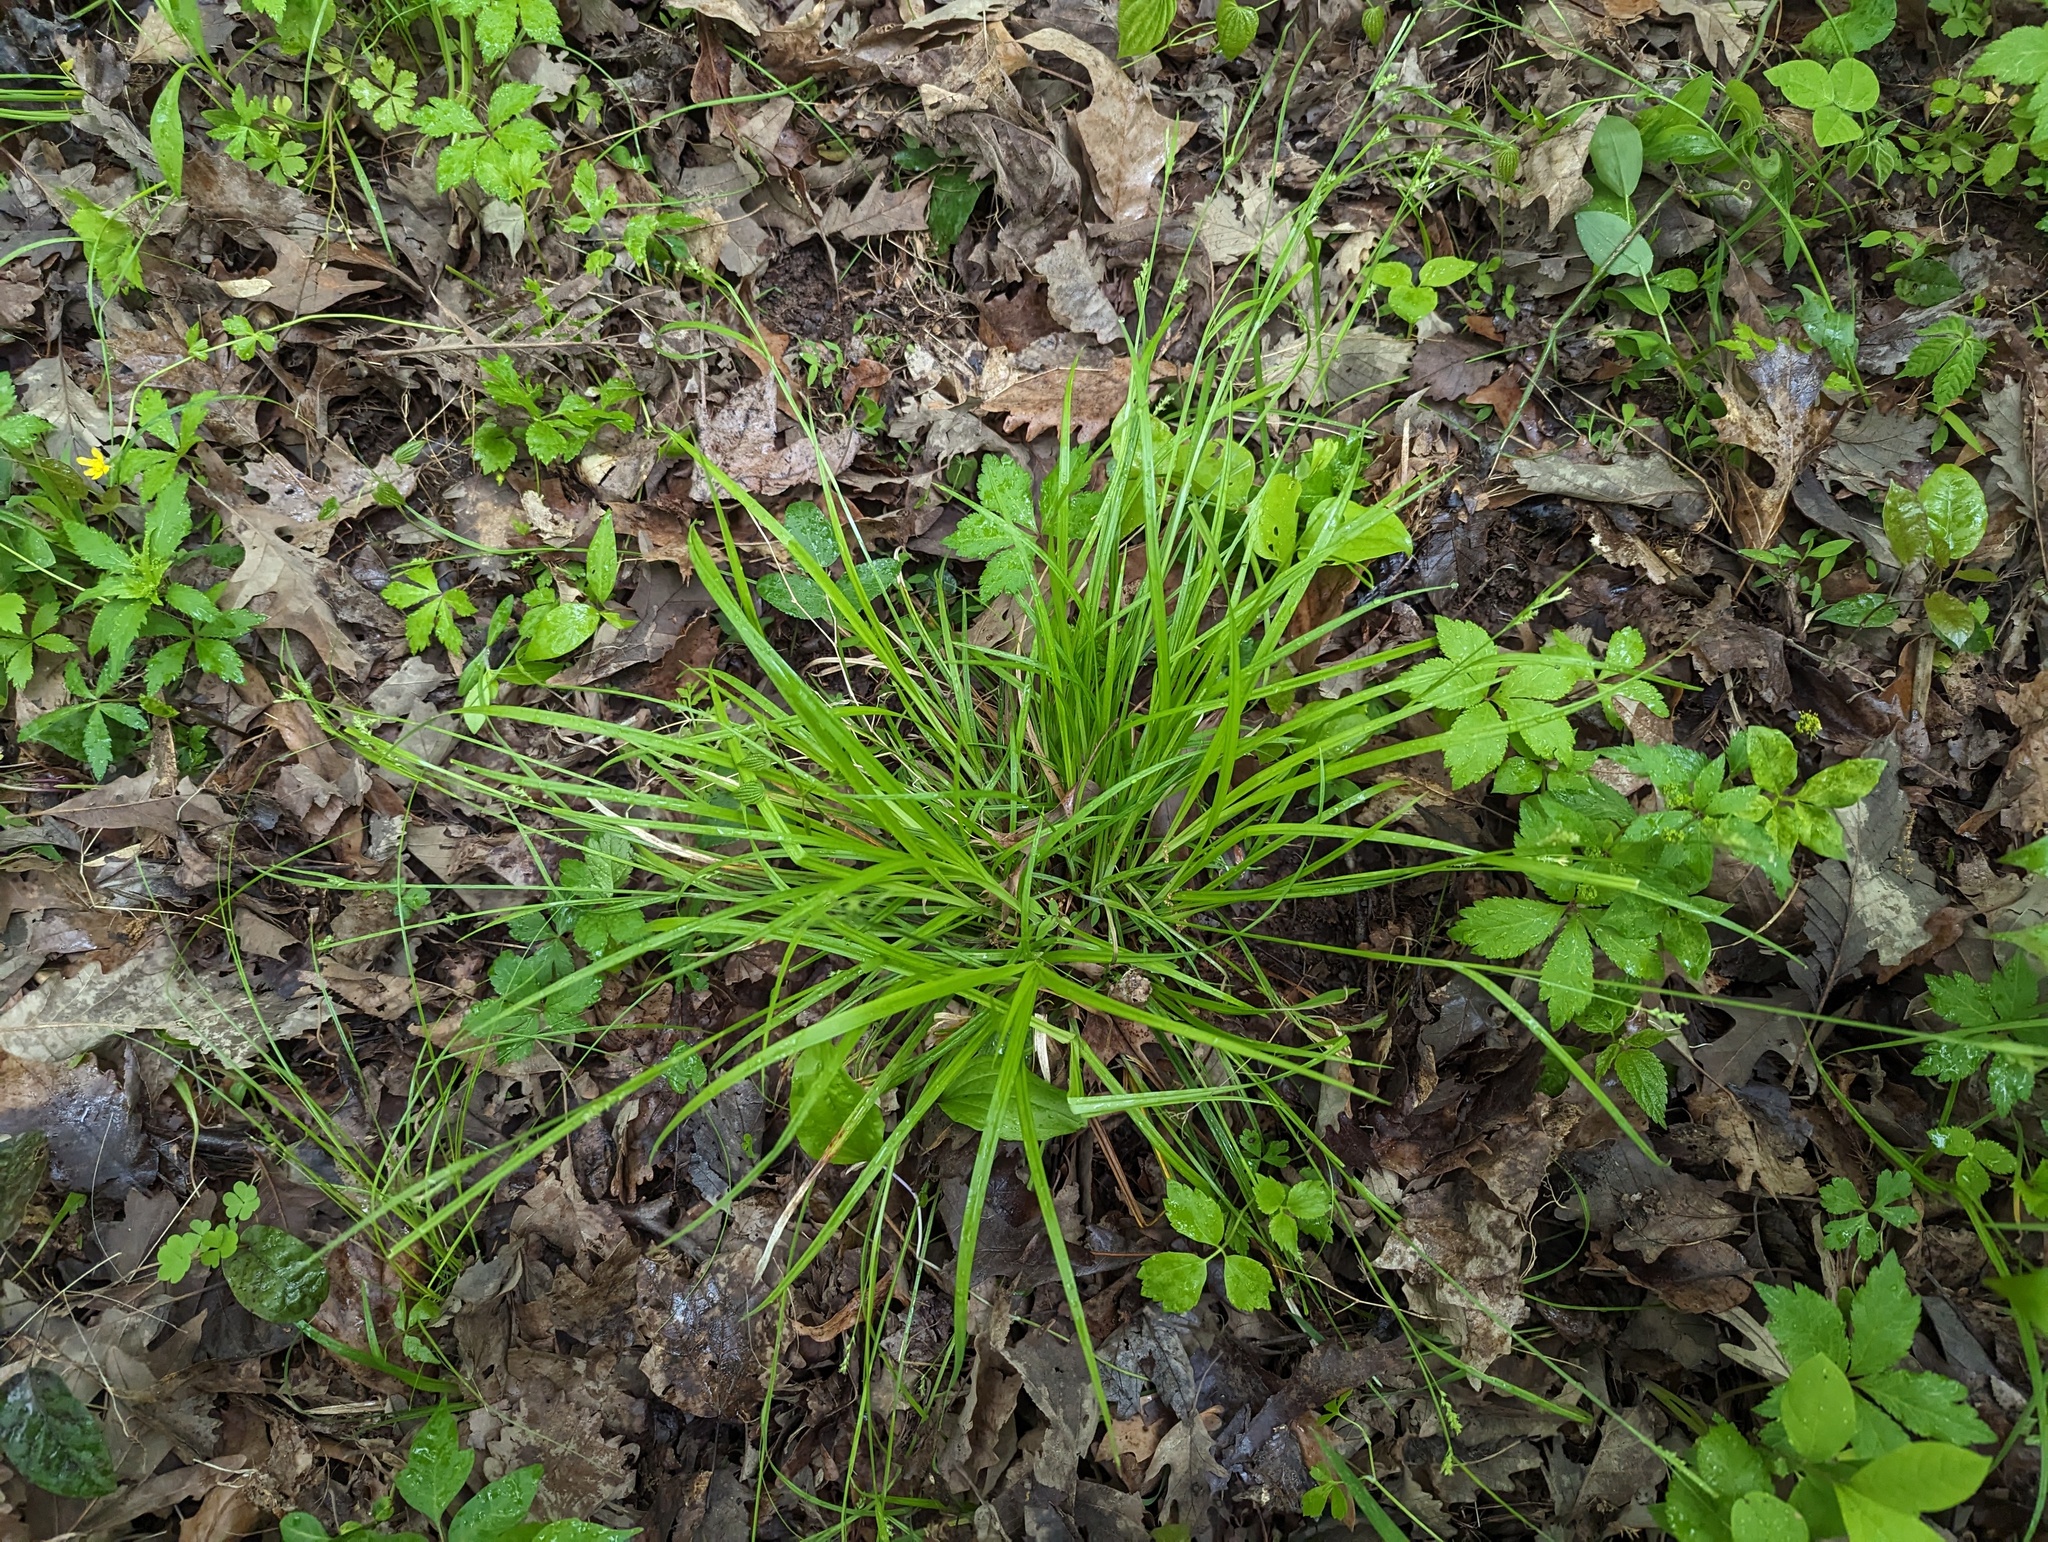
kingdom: Plantae
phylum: Tracheophyta
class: Liliopsida
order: Poales
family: Cyperaceae
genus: Carex
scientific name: Carex amphibola
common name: Amphibious sedge
